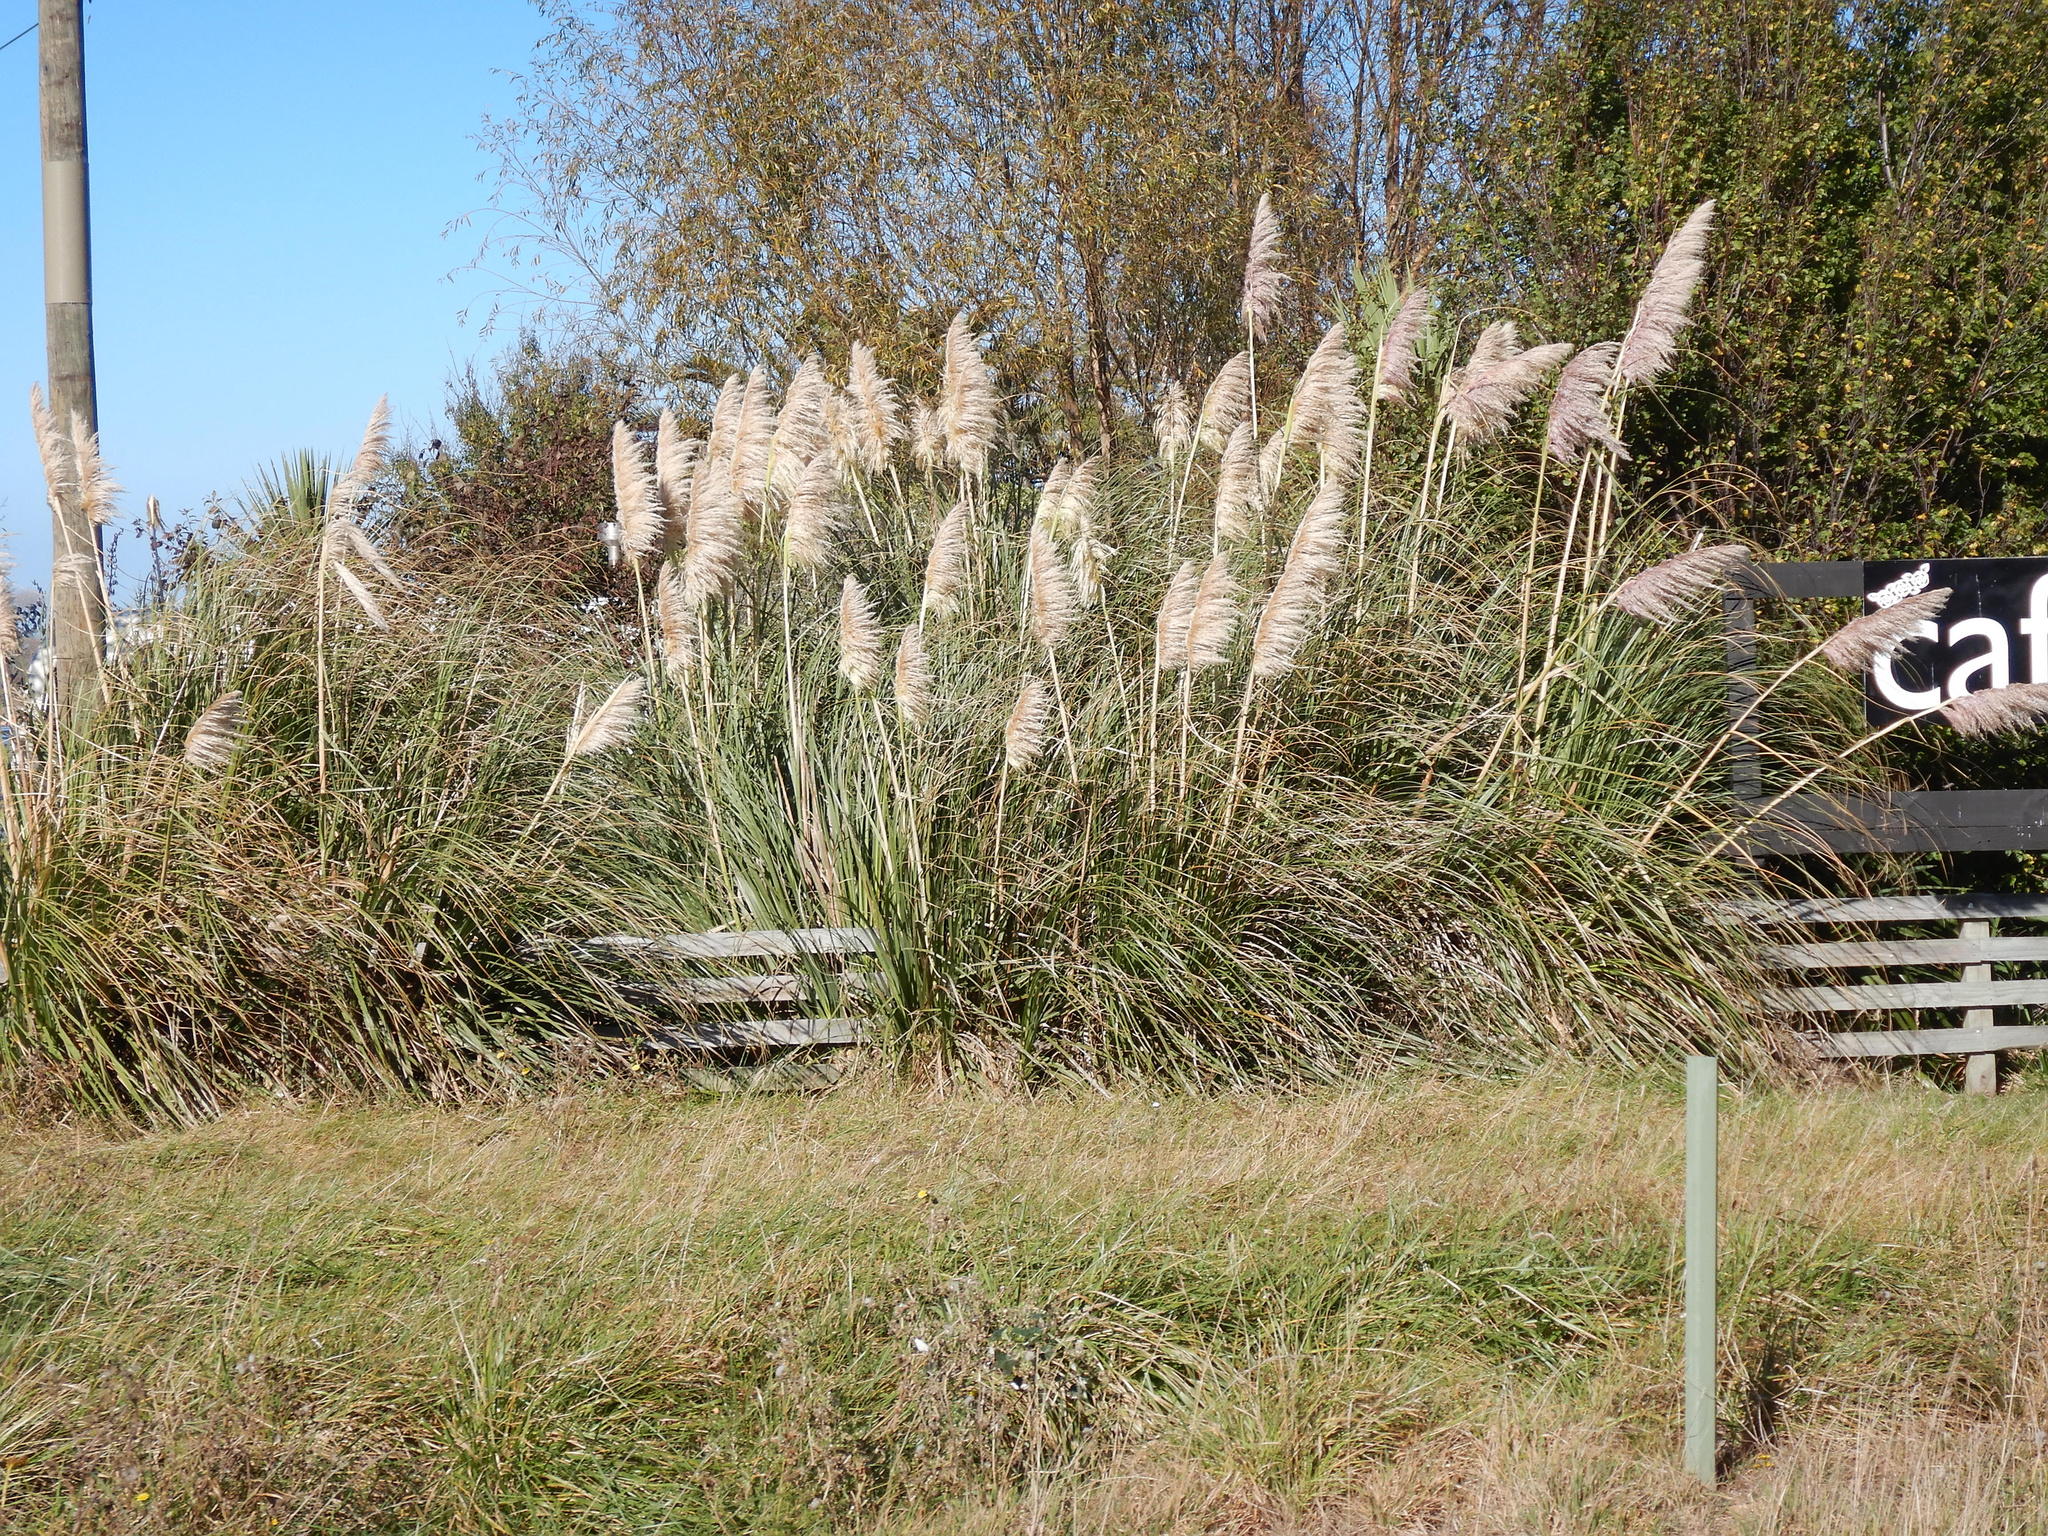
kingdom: Plantae
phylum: Tracheophyta
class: Liliopsida
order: Poales
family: Poaceae
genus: Cortaderia
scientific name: Cortaderia selloana
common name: Uruguayan pampas grass
